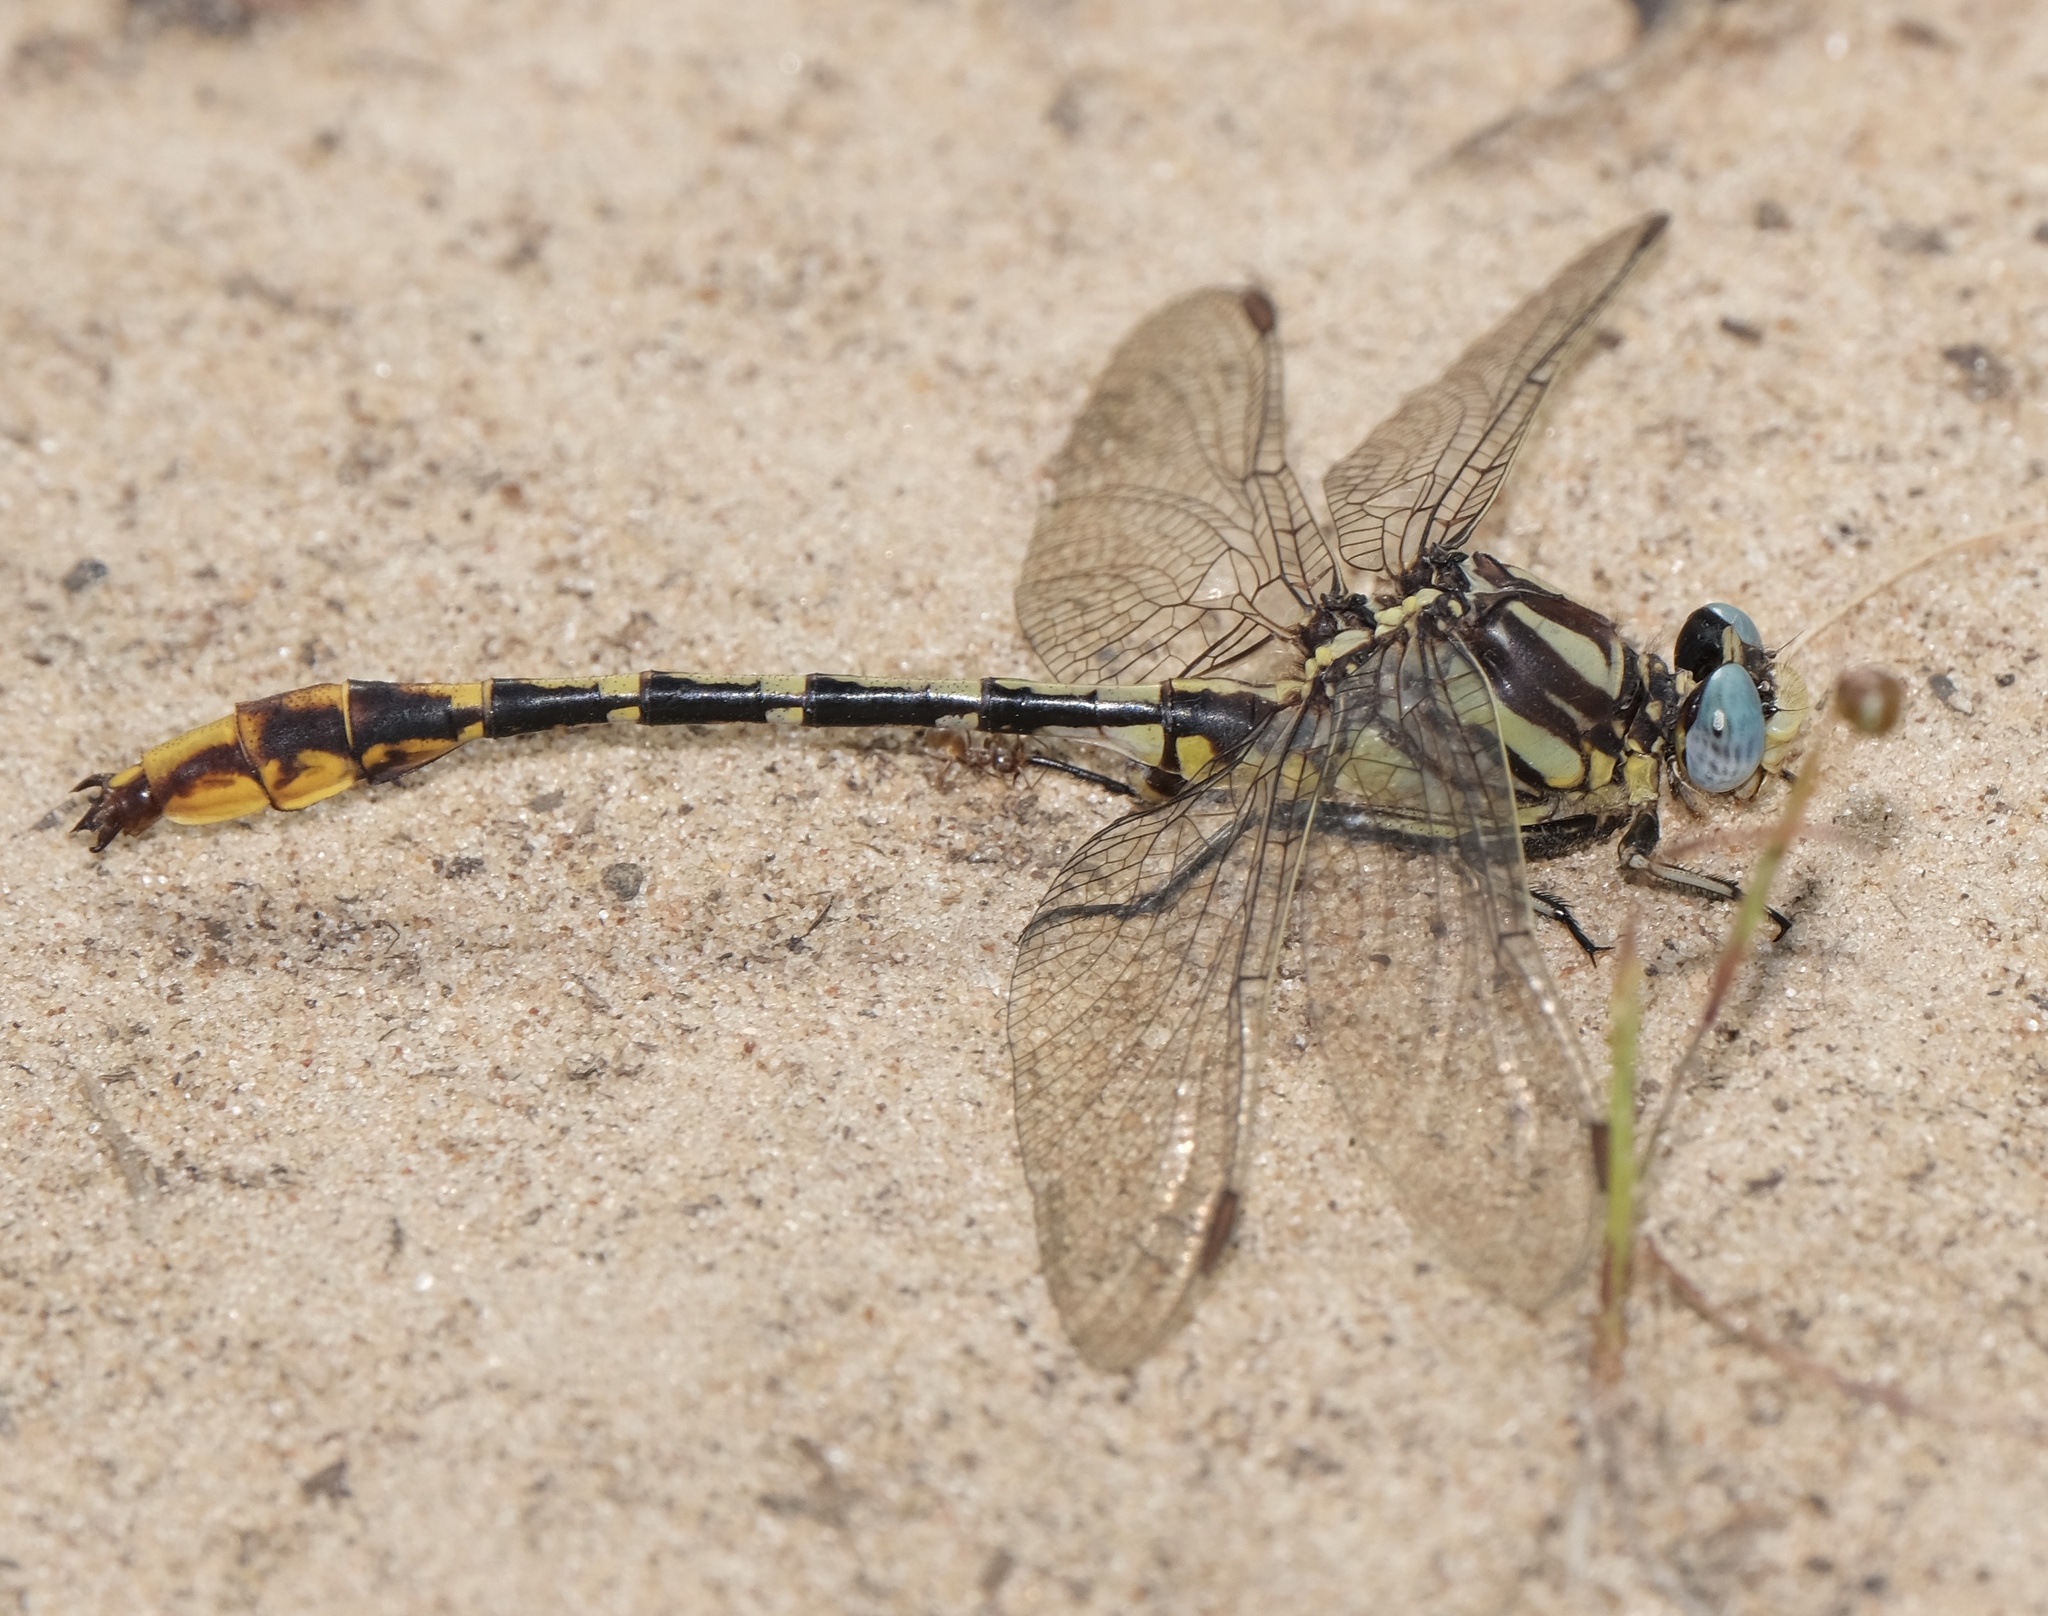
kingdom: Animalia
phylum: Arthropoda
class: Insecta
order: Odonata
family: Gomphidae
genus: Phanogomphus
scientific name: Phanogomphus militaris
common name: Sulphur-tipped clubtail
